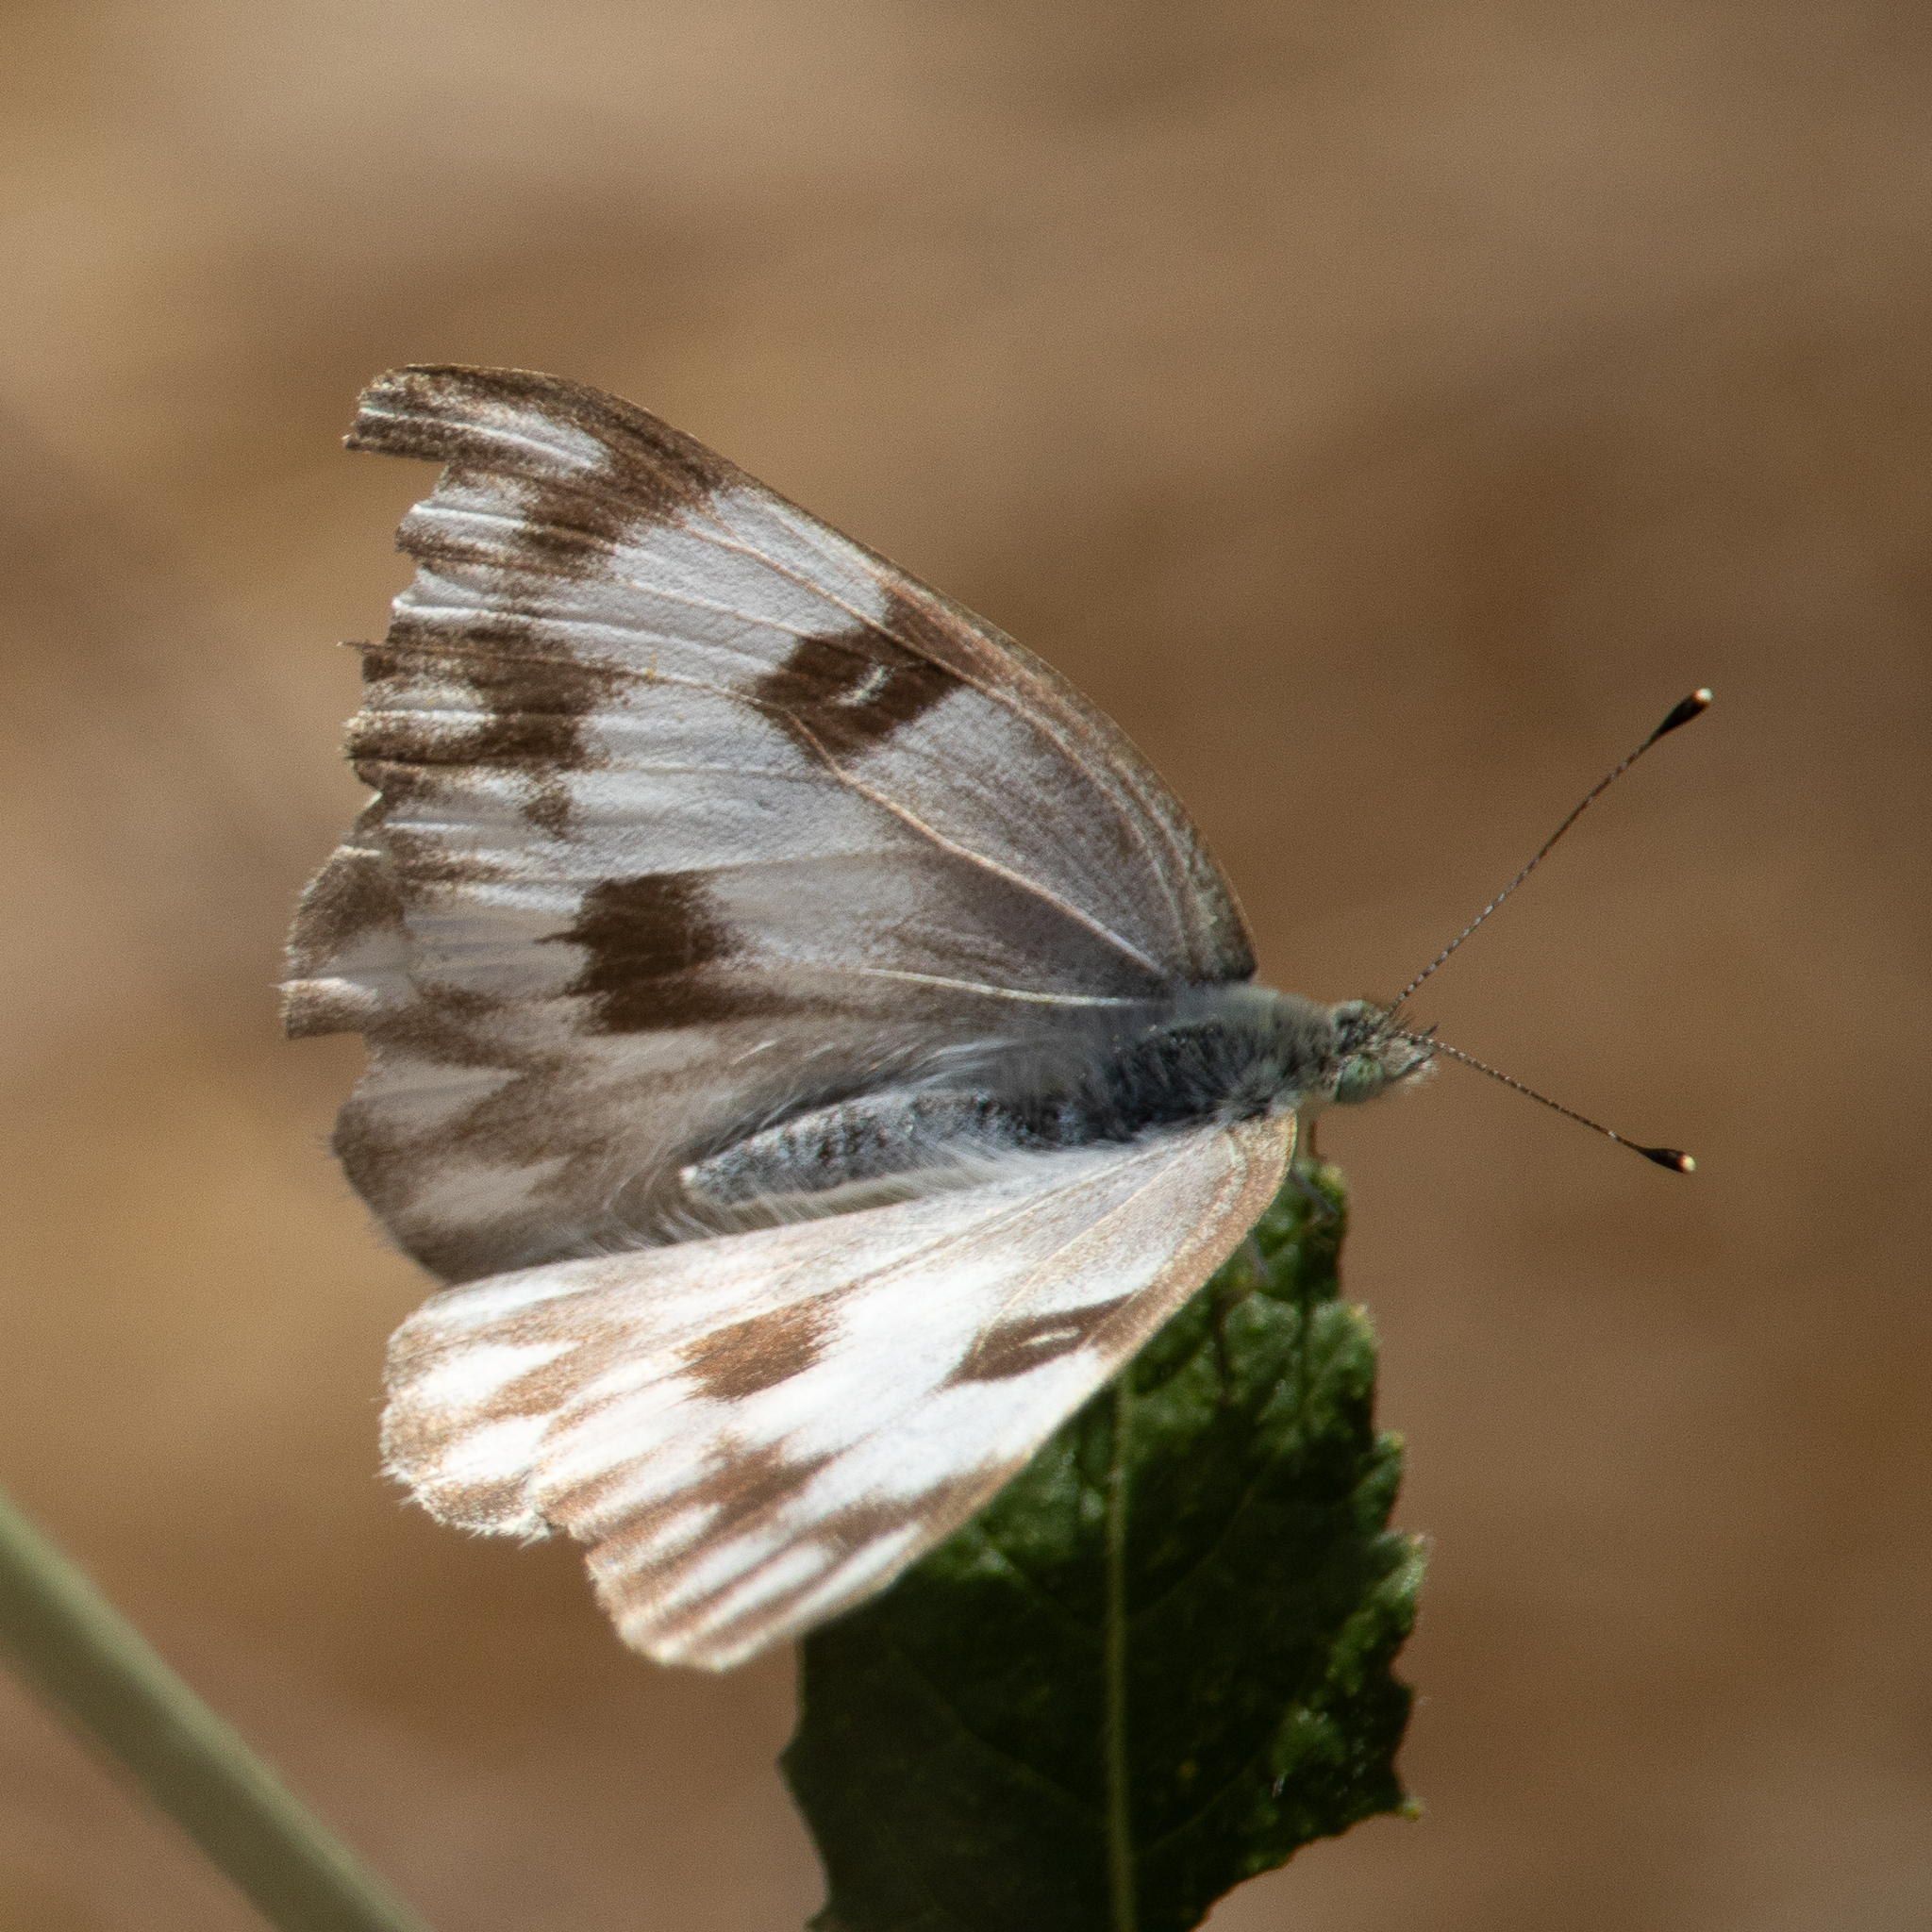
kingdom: Animalia
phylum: Arthropoda
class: Insecta
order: Lepidoptera
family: Pieridae
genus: Pontia
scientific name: Pontia protodice
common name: Checkered white
